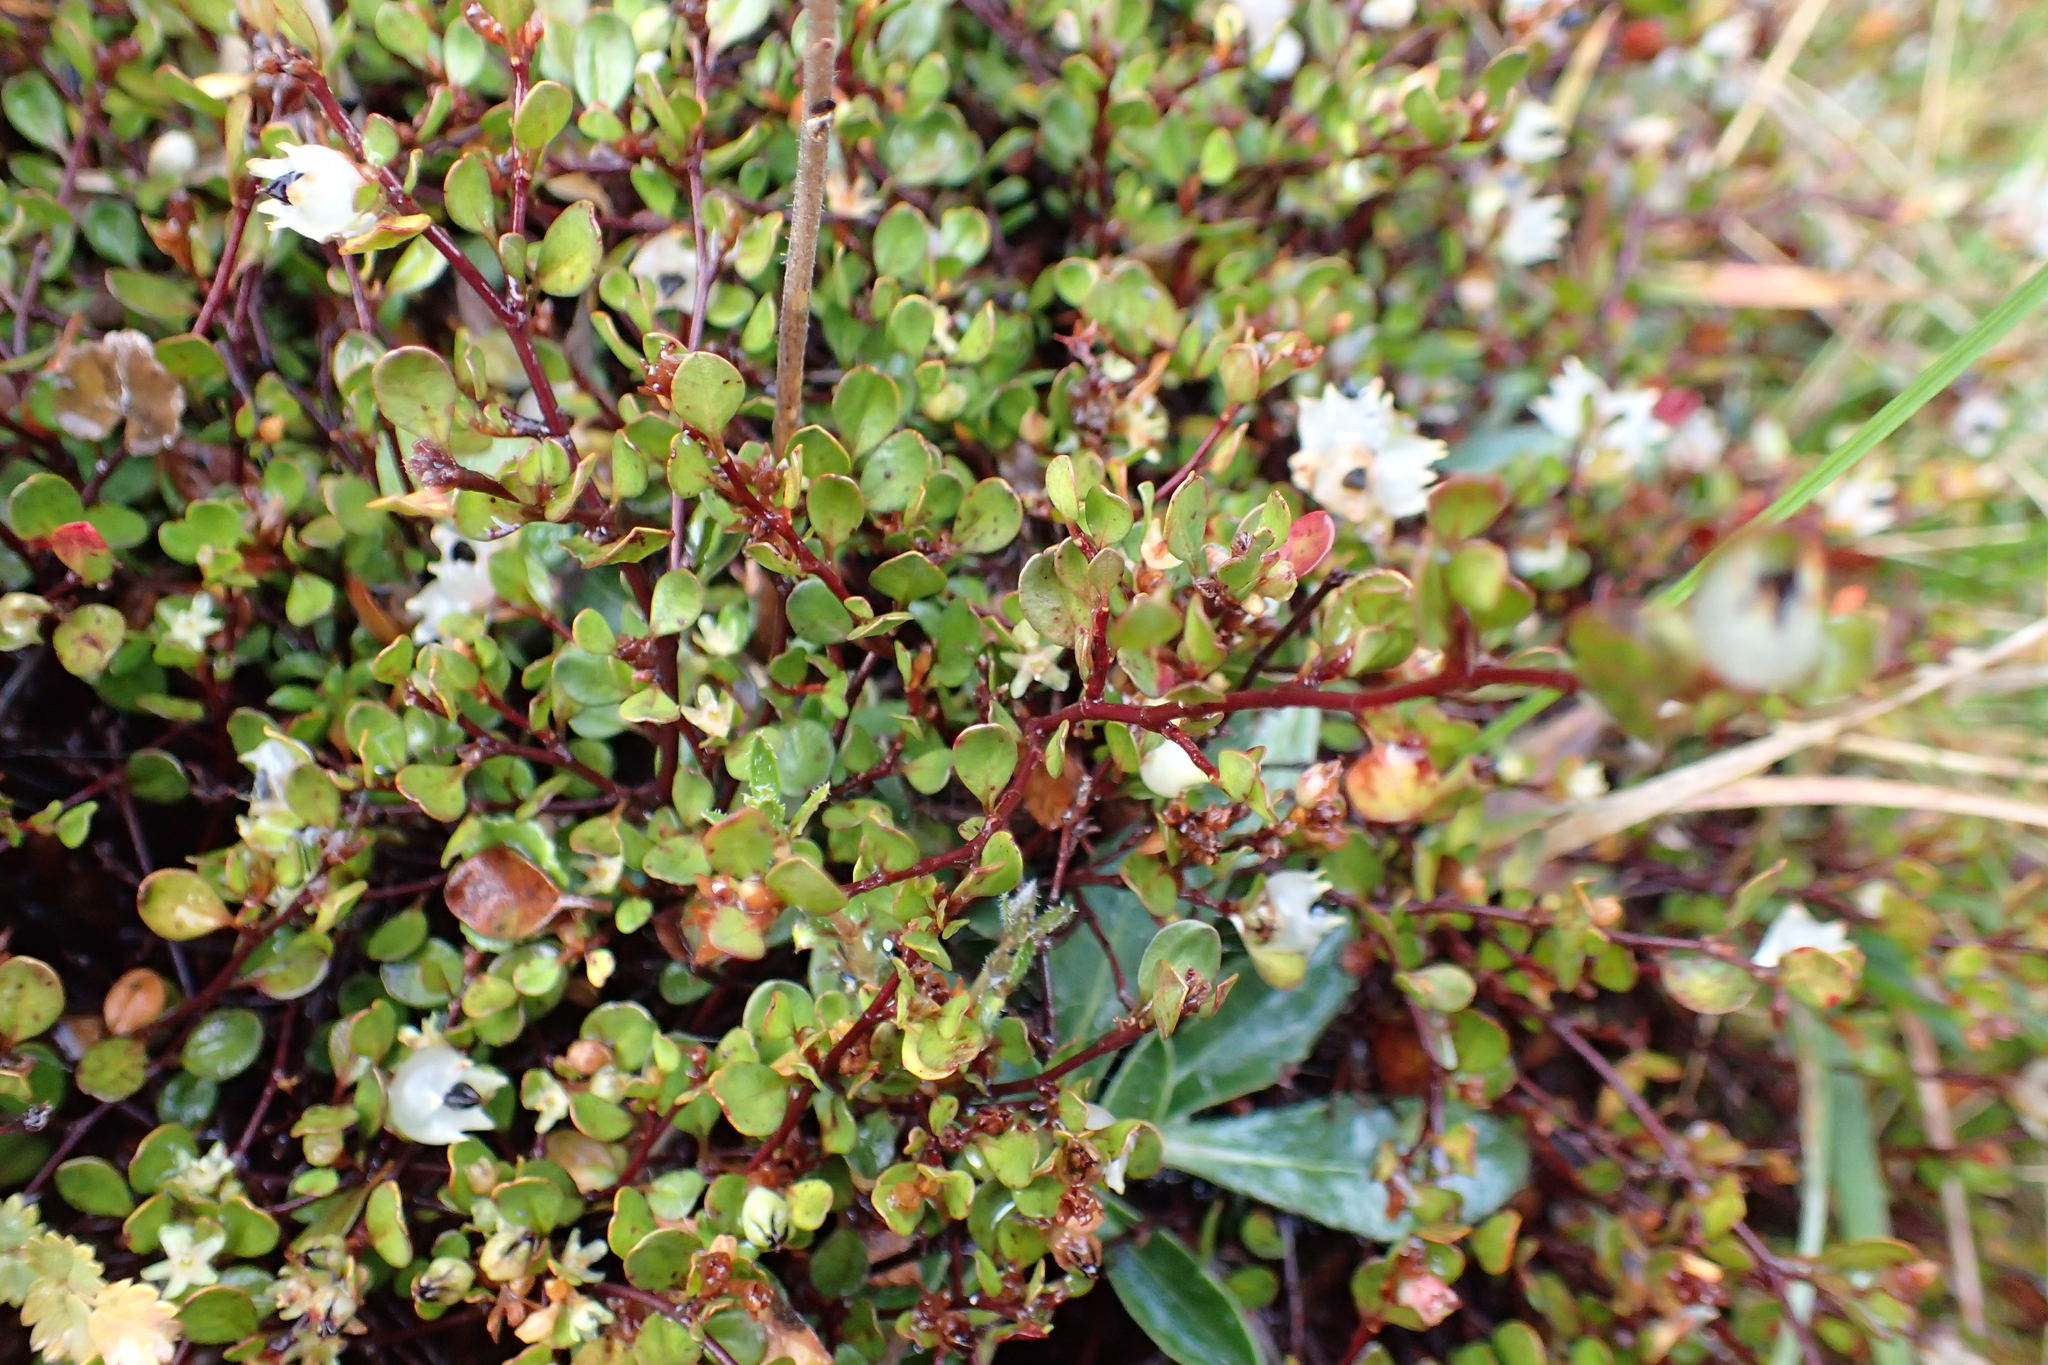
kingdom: Plantae
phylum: Tracheophyta
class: Magnoliopsida
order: Caryophyllales
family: Polygonaceae
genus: Muehlenbeckia
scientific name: Muehlenbeckia axillaris
